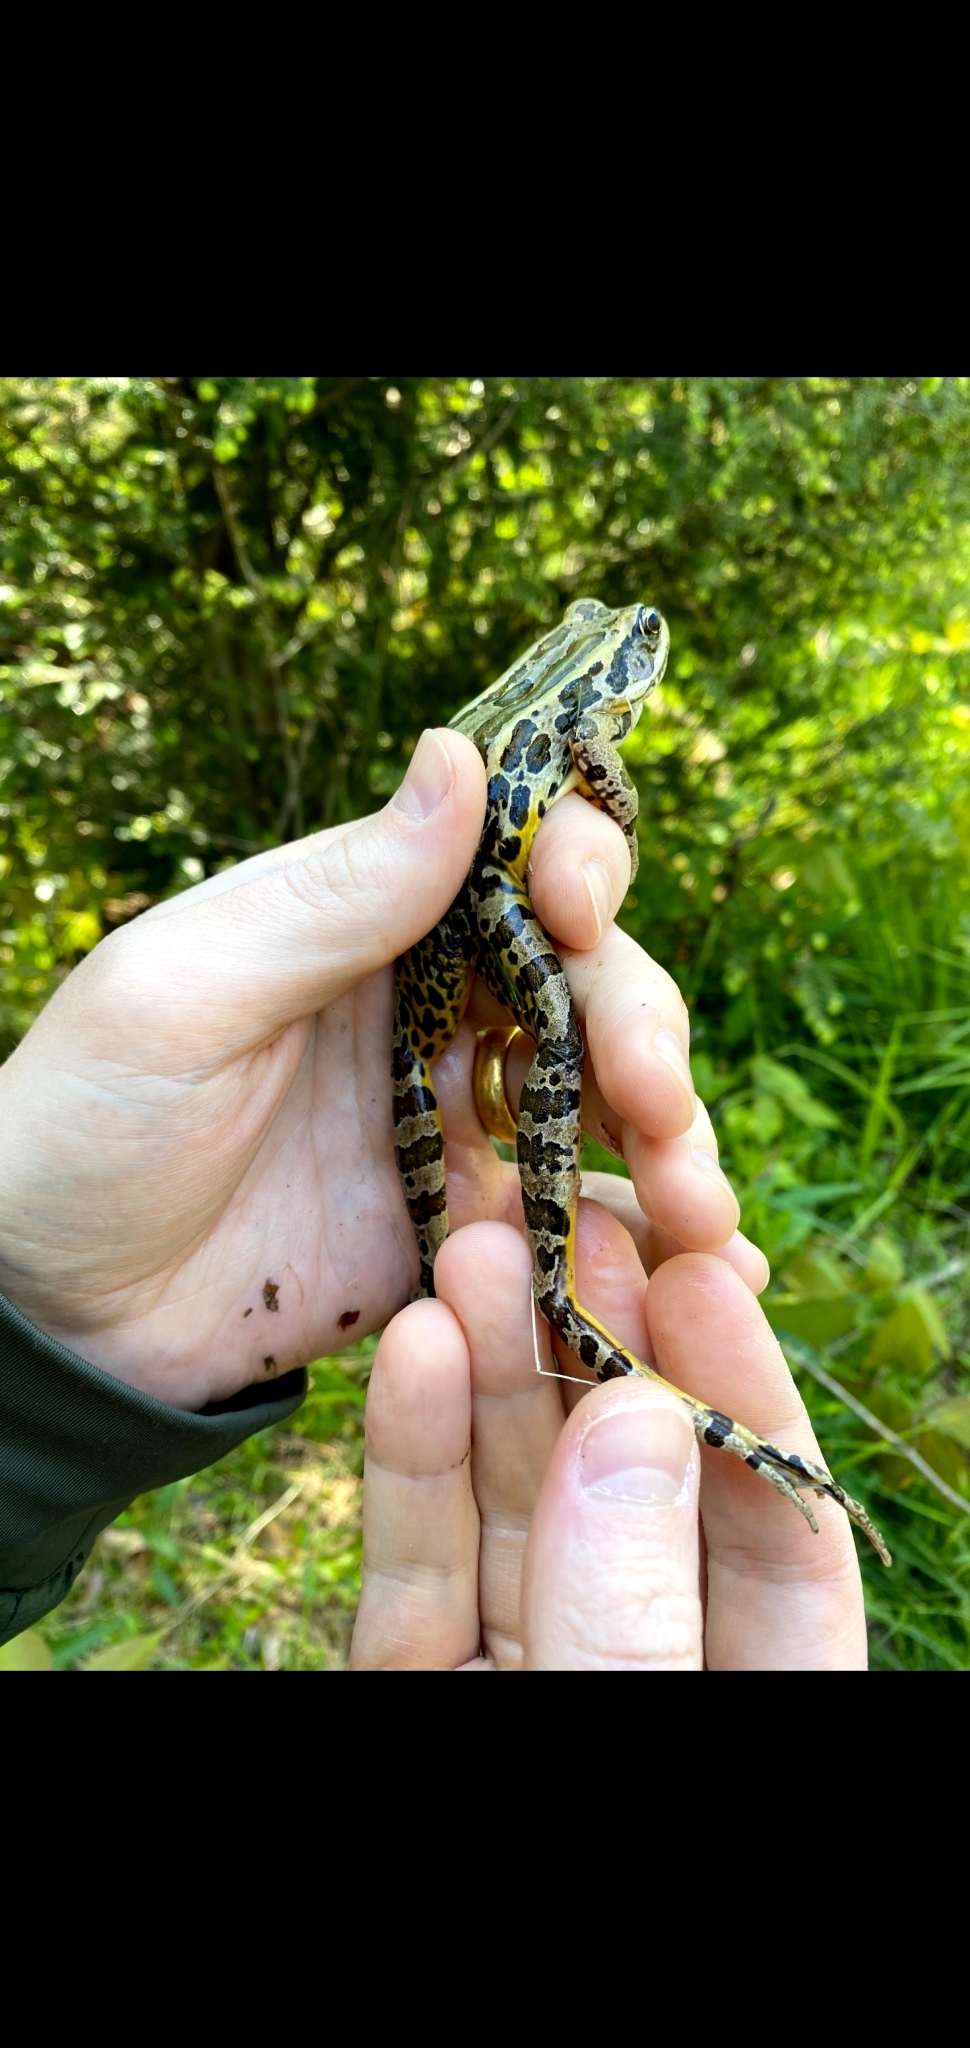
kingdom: Animalia
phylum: Chordata
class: Amphibia
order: Anura
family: Ranidae
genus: Lithobates
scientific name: Lithobates palustris
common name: Pickerel frog
